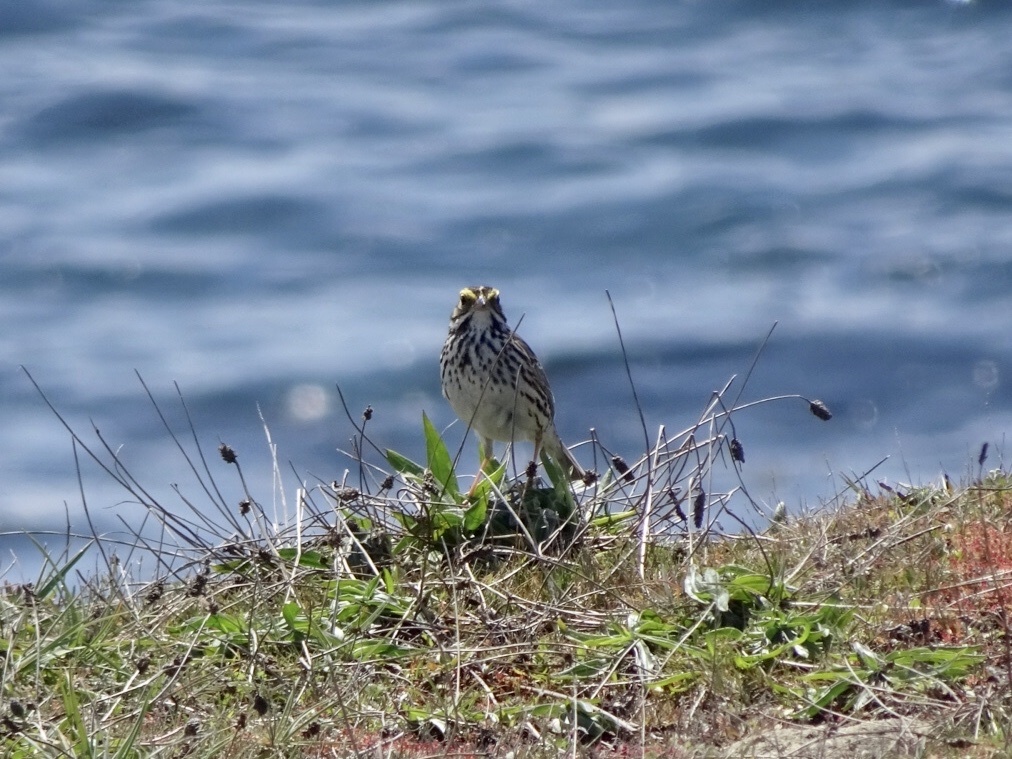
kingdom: Animalia
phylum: Chordata
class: Aves
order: Passeriformes
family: Passerellidae
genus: Passerculus
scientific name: Passerculus sandwichensis
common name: Savannah sparrow
